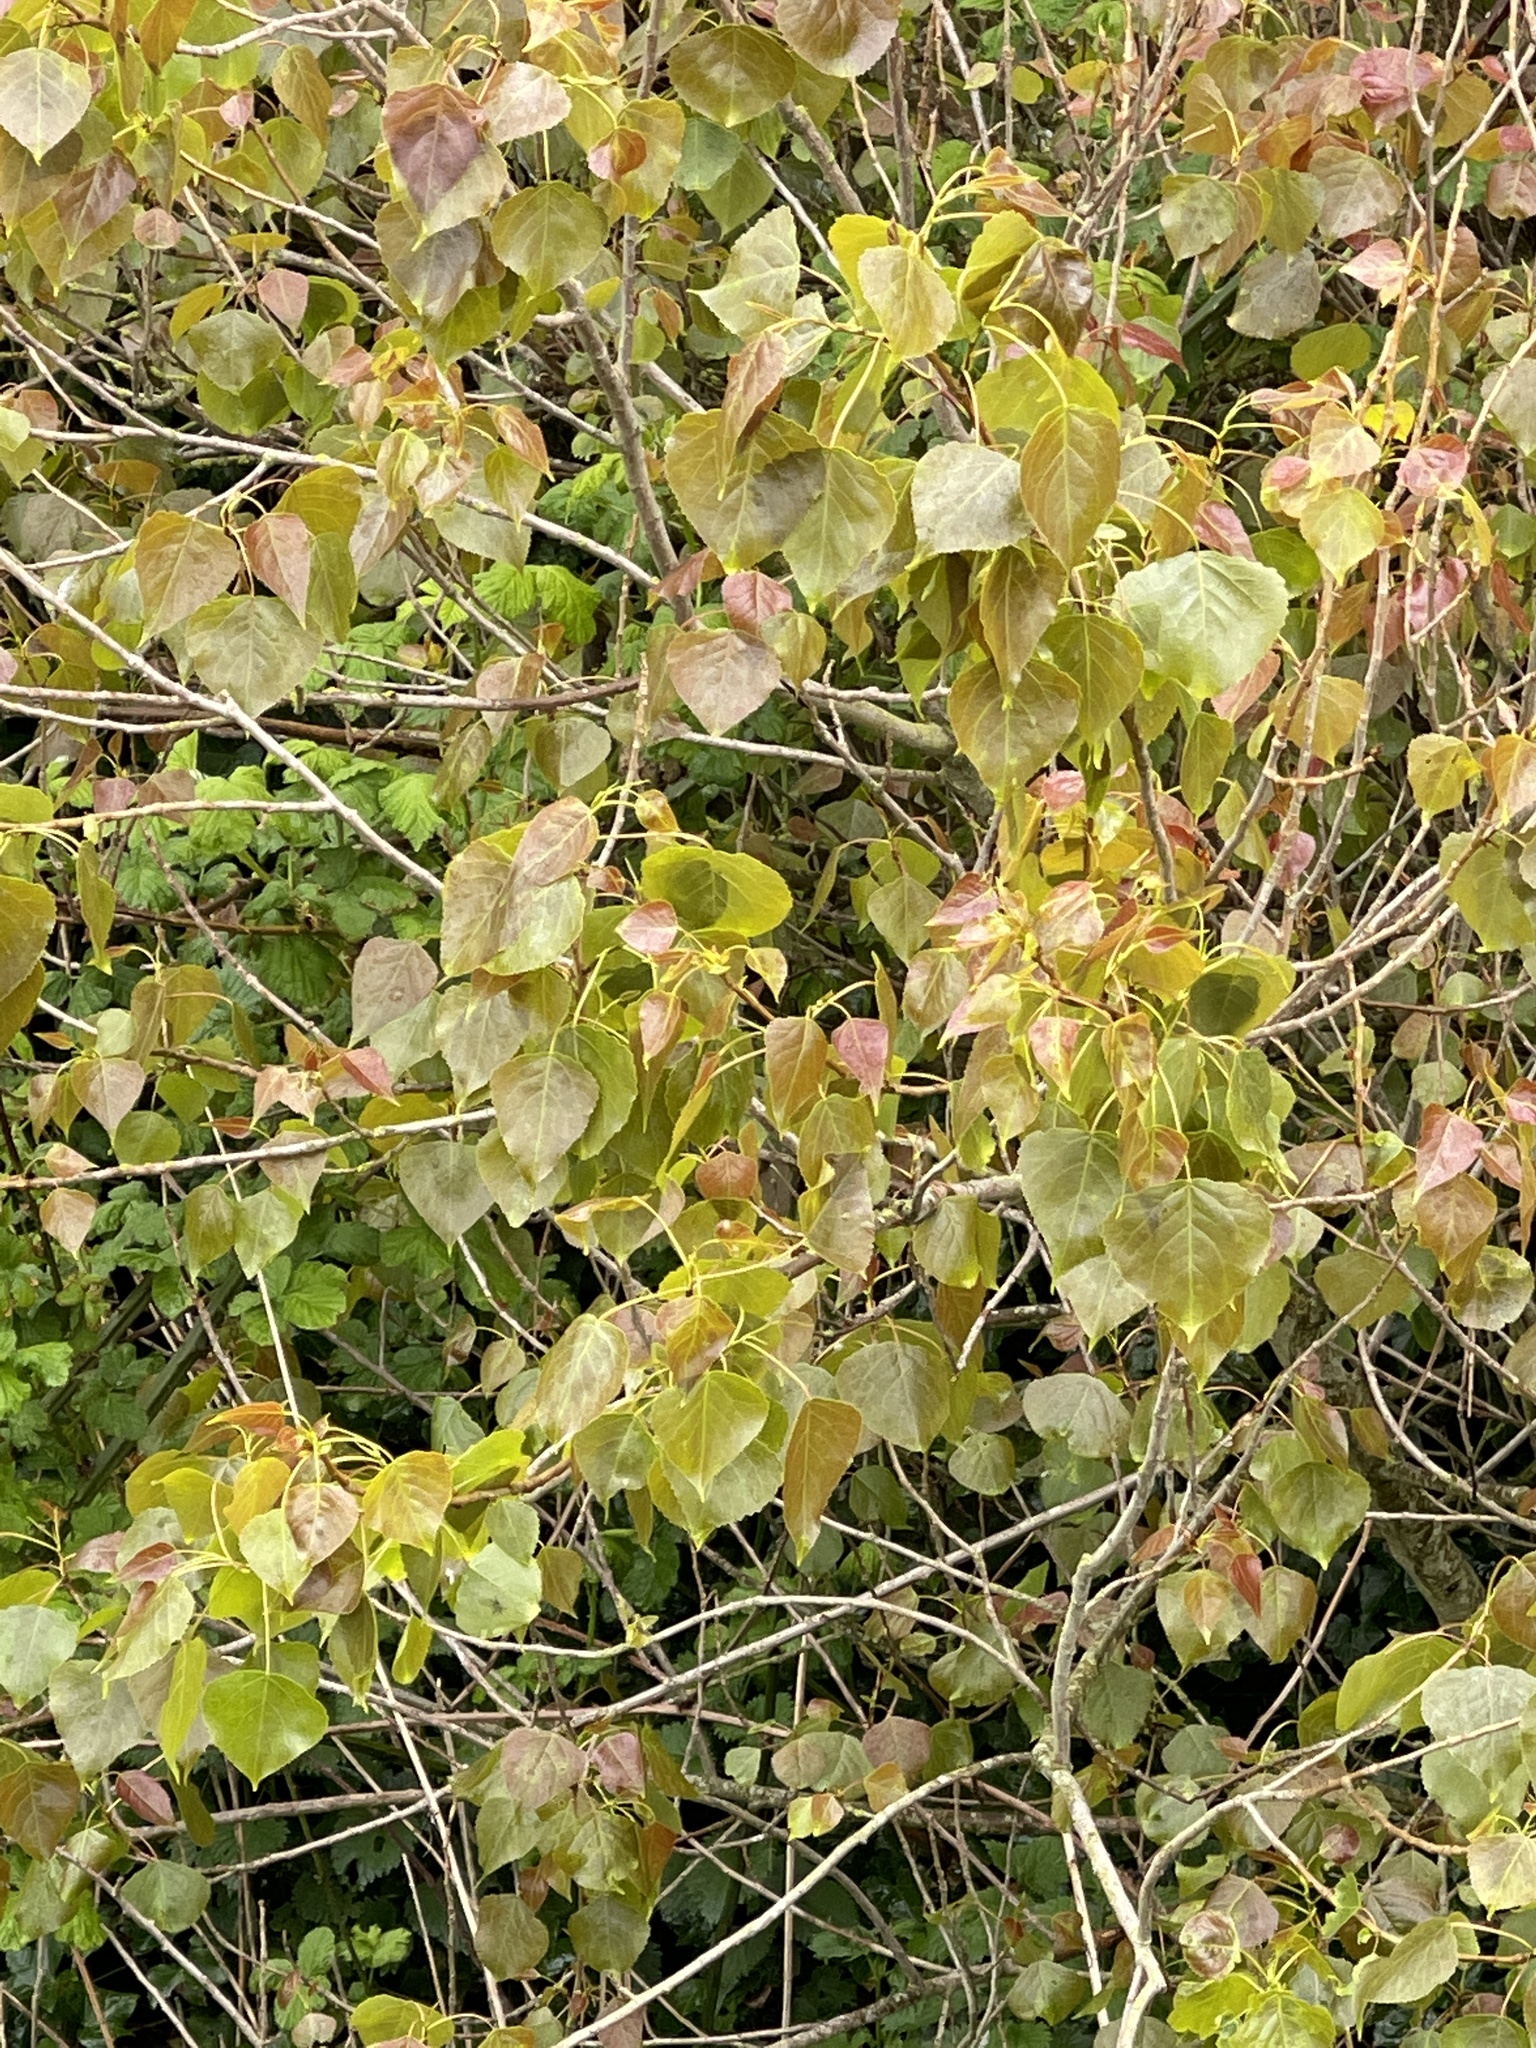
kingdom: Plantae
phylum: Tracheophyta
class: Magnoliopsida
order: Malpighiales
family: Salicaceae
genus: Populus
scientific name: Populus canadensis
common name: Carolina poplar
